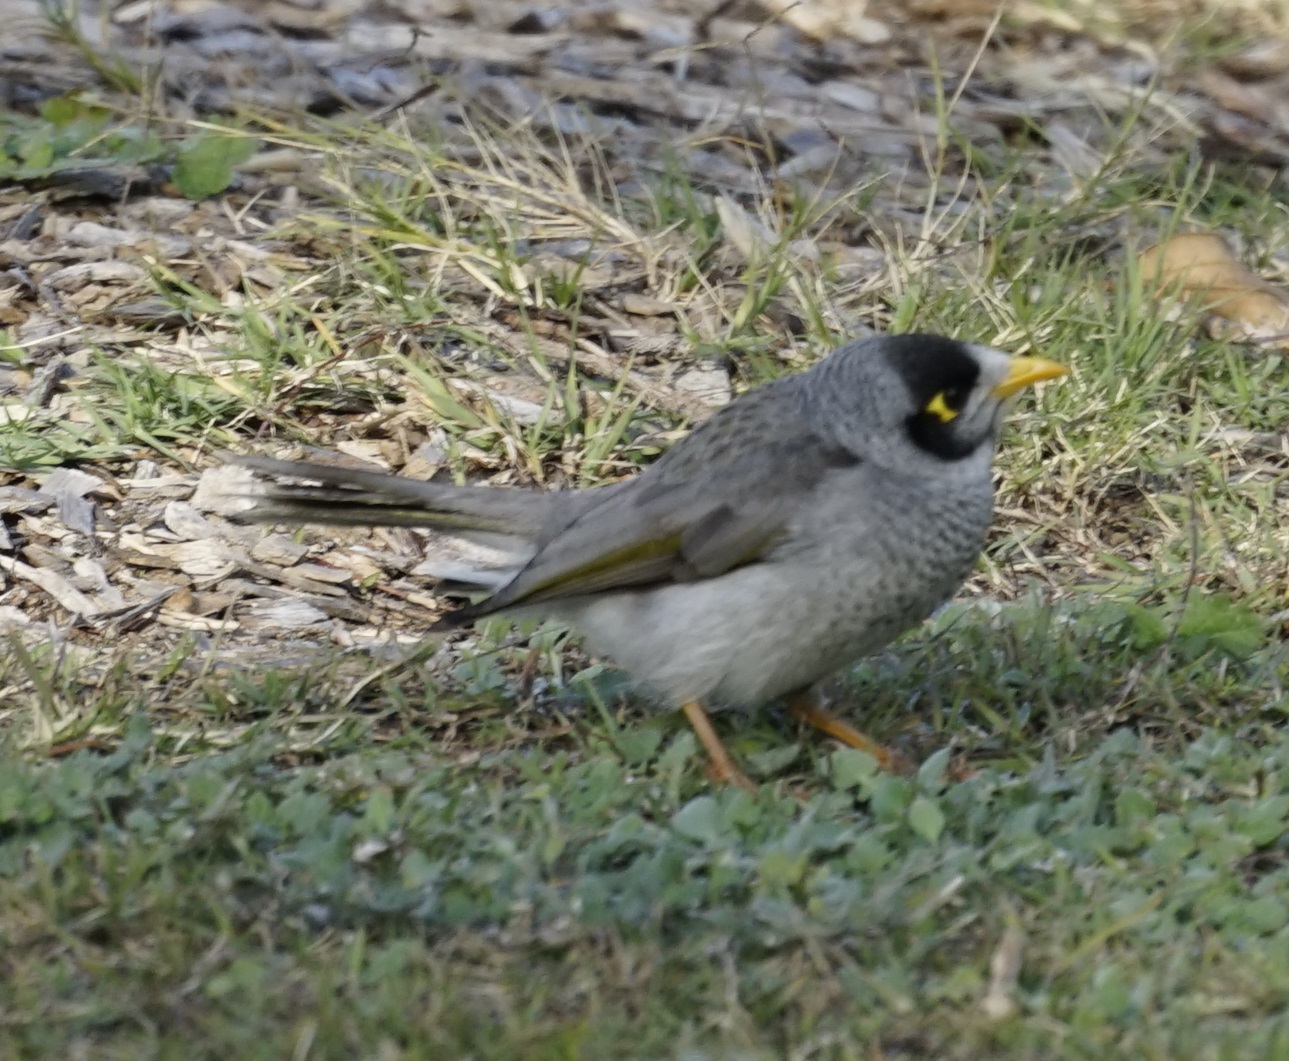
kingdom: Animalia
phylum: Chordata
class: Aves
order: Passeriformes
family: Meliphagidae
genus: Manorina
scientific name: Manorina melanocephala
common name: Noisy miner
